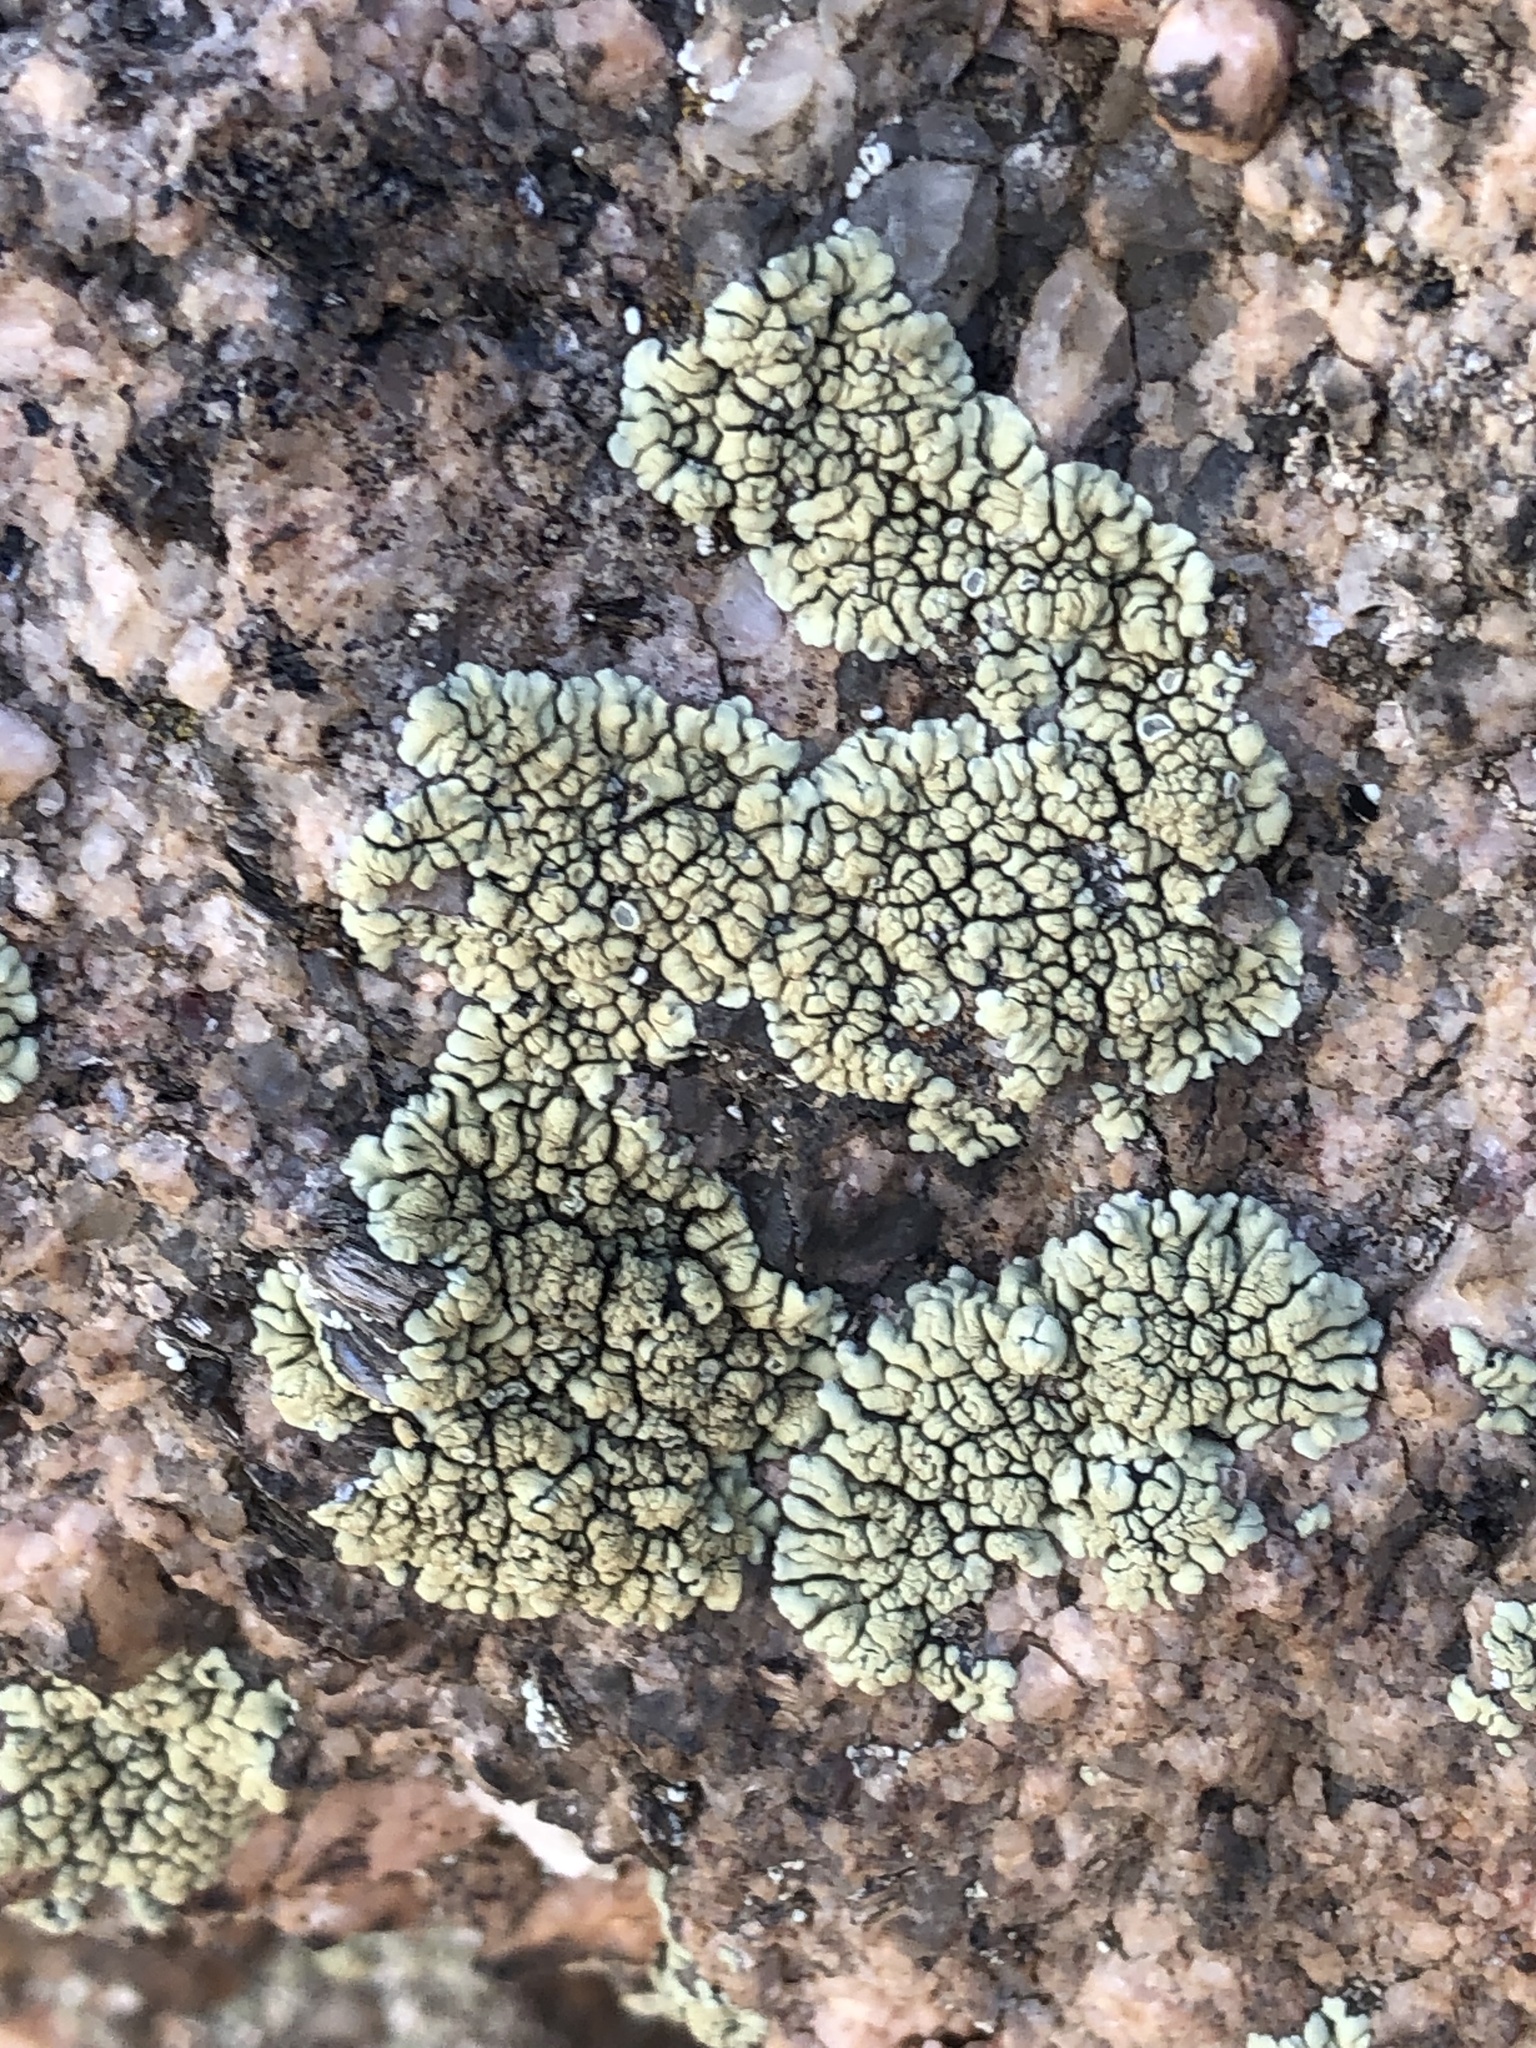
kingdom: Fungi
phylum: Ascomycota
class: Lecanoromycetes
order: Lecanorales
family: Lecanoraceae
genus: Rhizoplaca
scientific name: Rhizoplaca novomexicana
